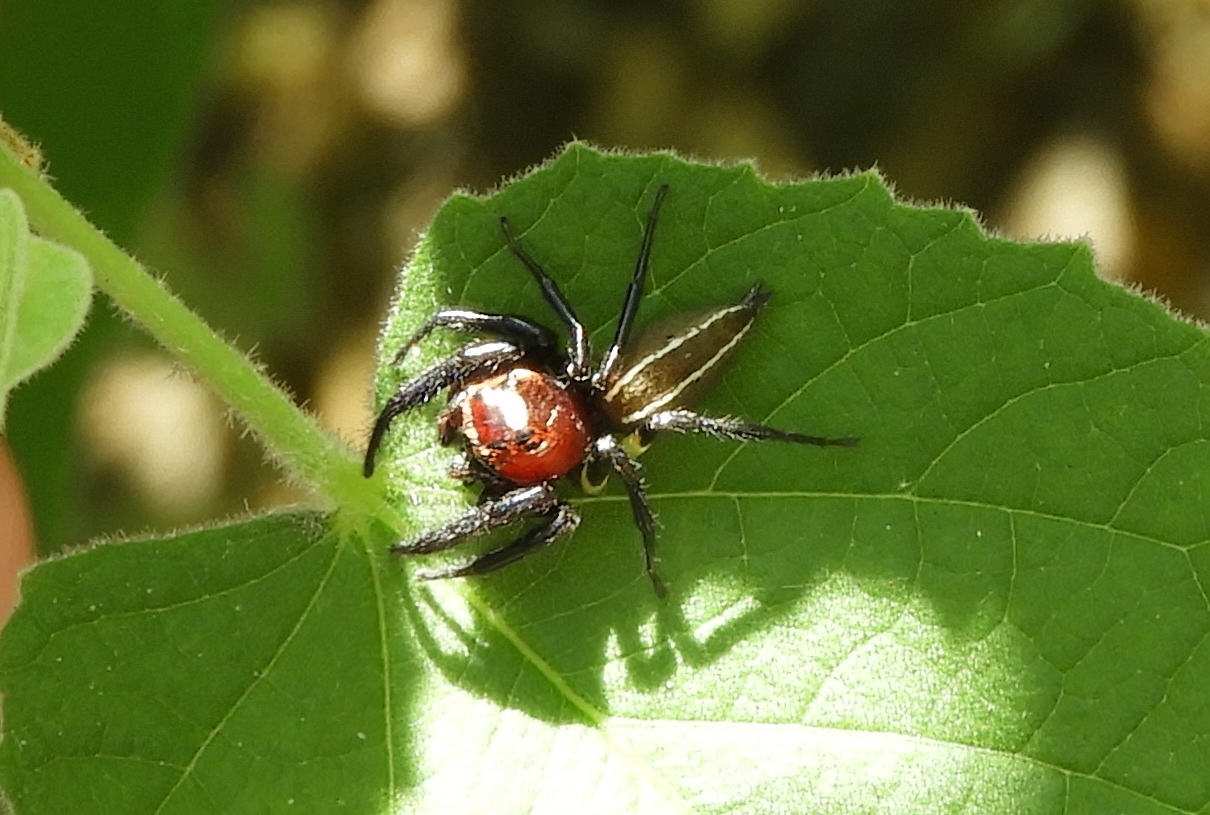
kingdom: Animalia
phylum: Arthropoda
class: Arachnida
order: Araneae
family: Salticidae
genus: Colonus
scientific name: Colonus
